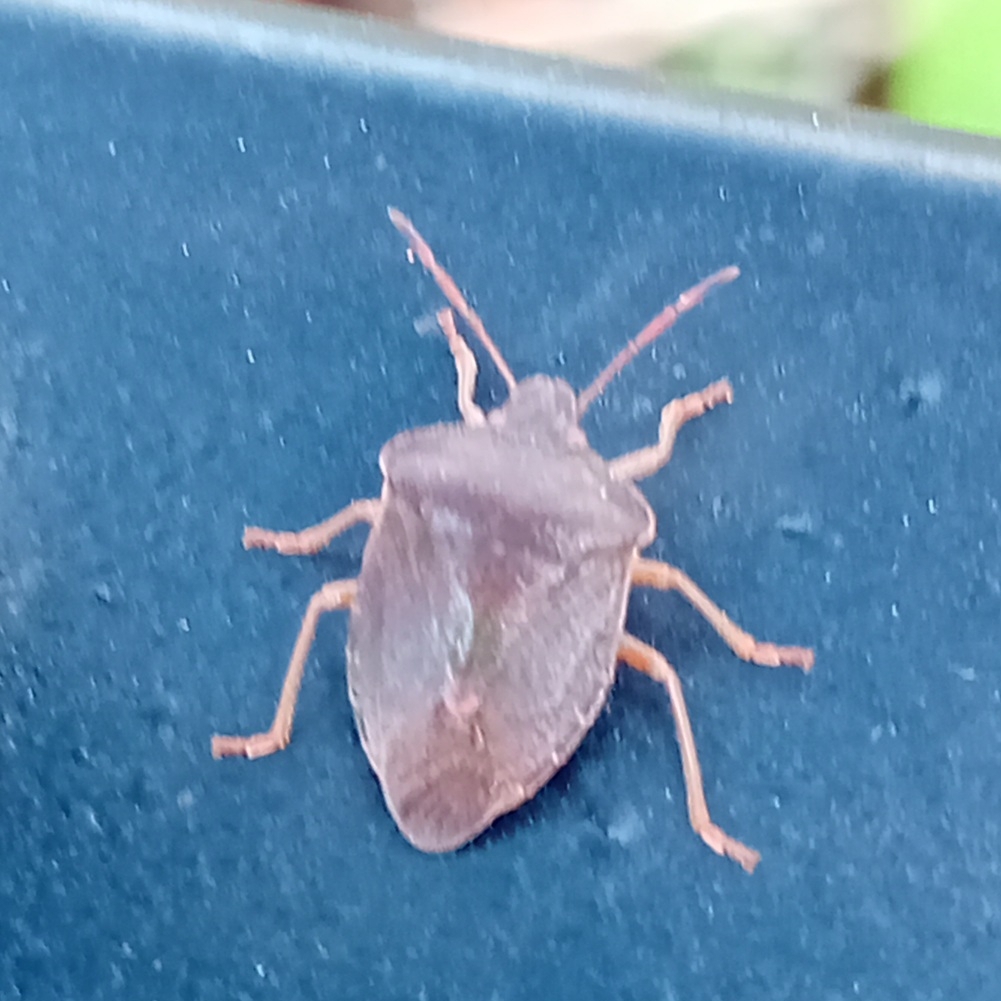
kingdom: Animalia
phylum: Arthropoda
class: Insecta
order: Hemiptera
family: Pentatomidae
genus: Palomena
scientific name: Palomena prasina
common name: Green shieldbug
